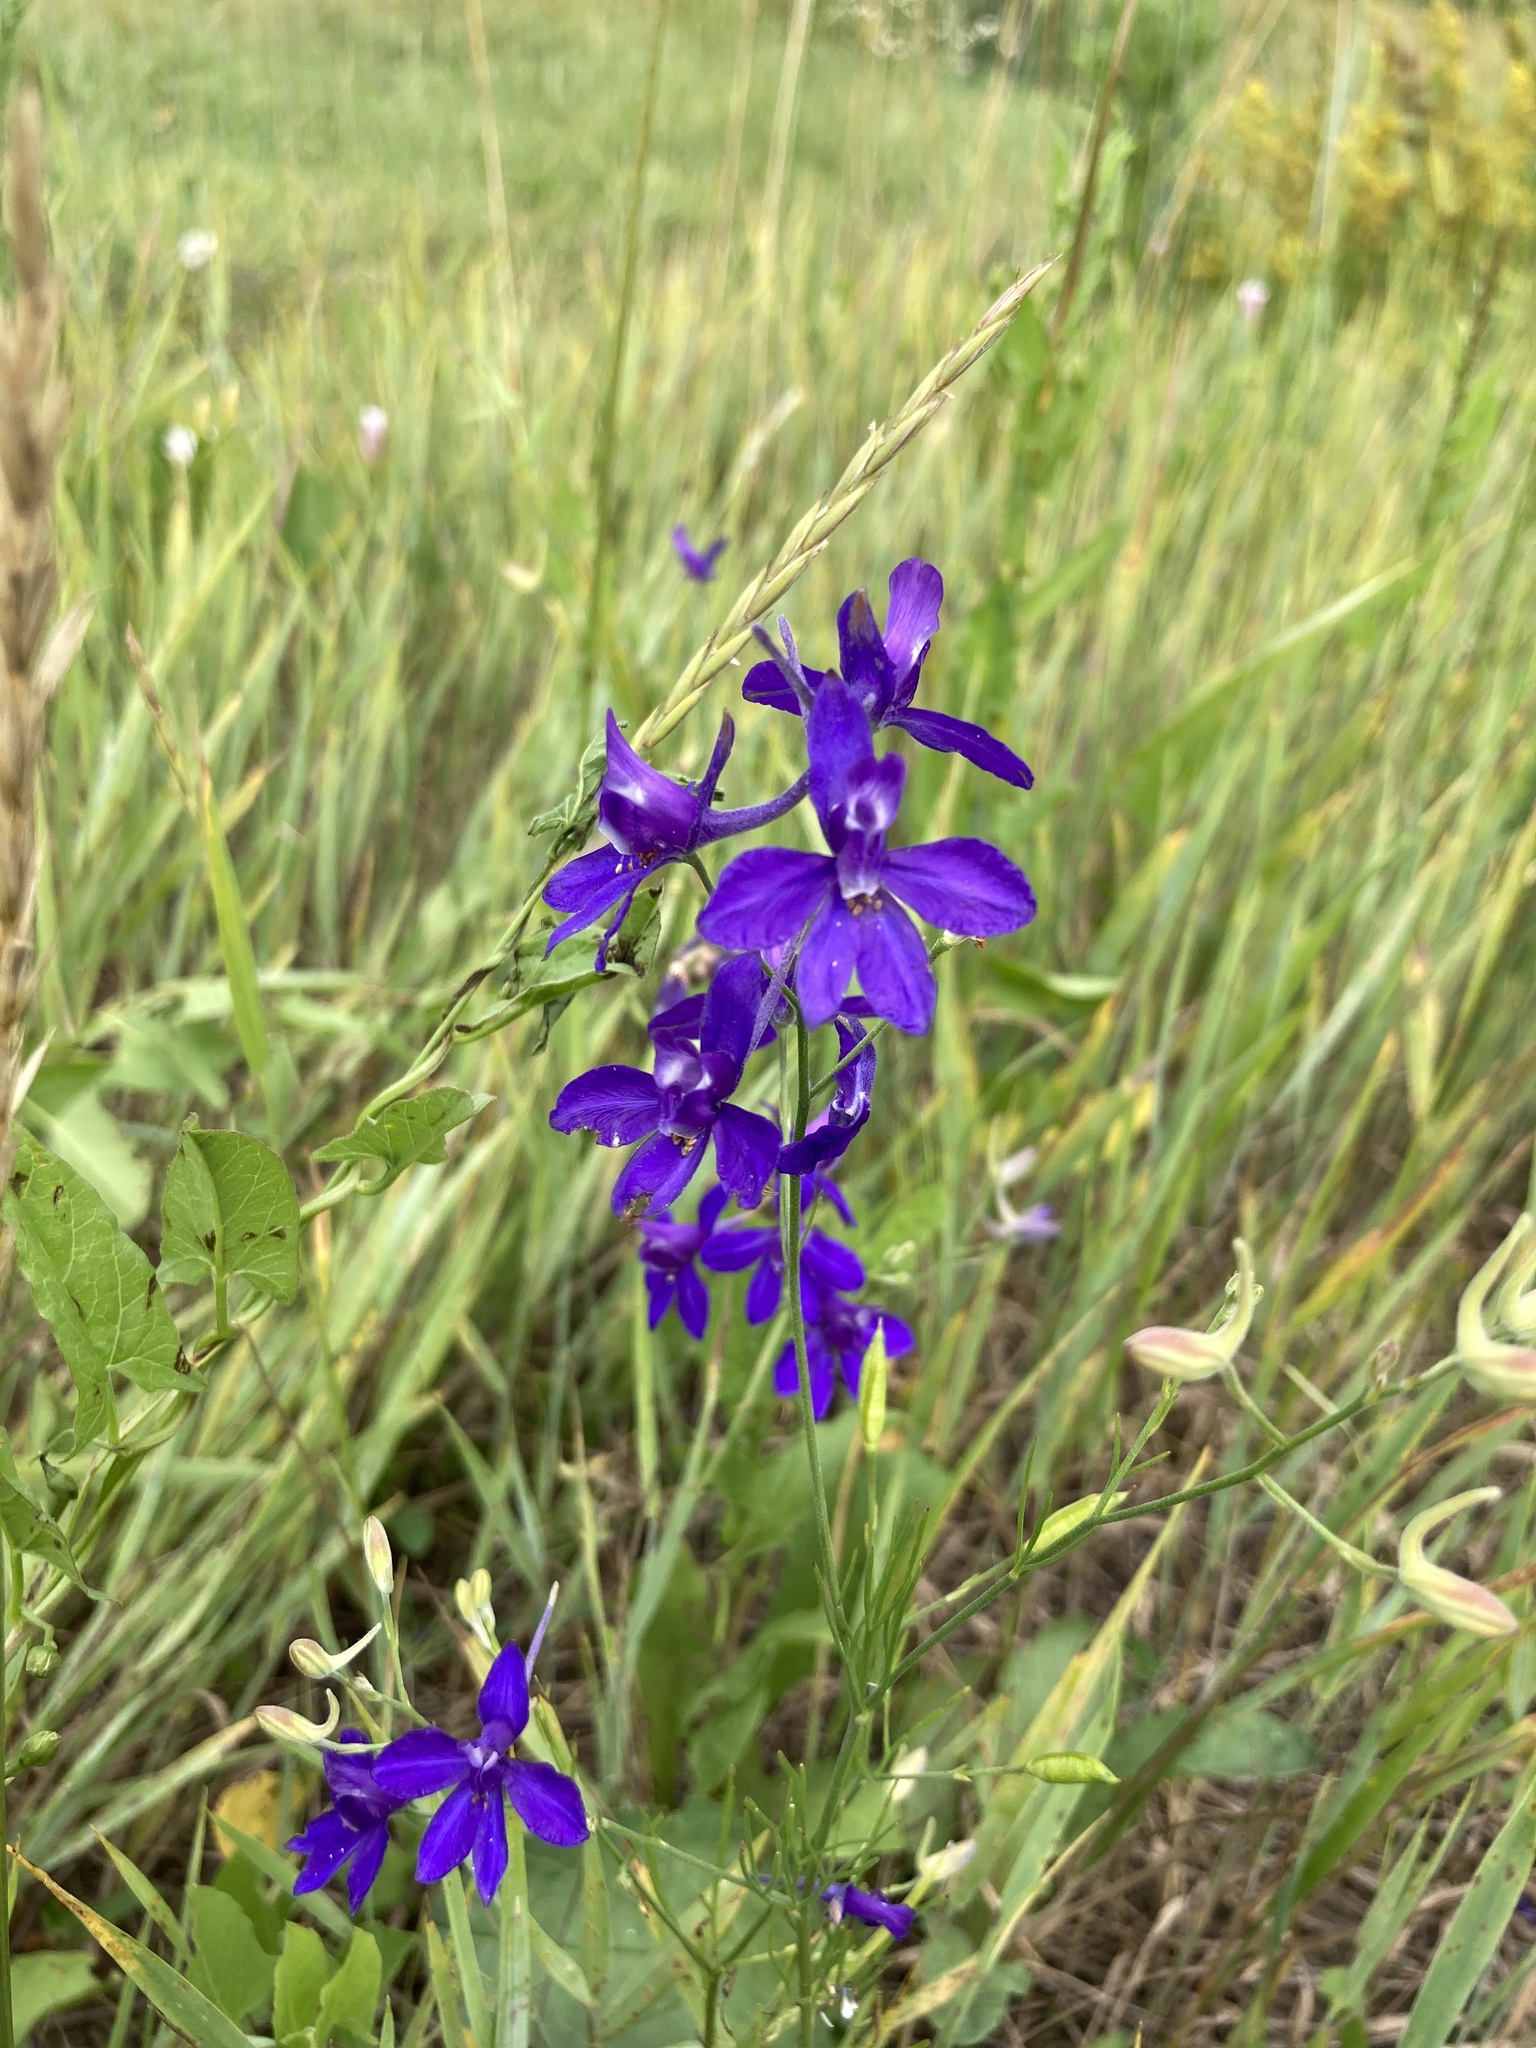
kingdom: Plantae
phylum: Tracheophyta
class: Magnoliopsida
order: Ranunculales
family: Ranunculaceae
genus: Delphinium
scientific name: Delphinium consolida
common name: Branching larkspur
